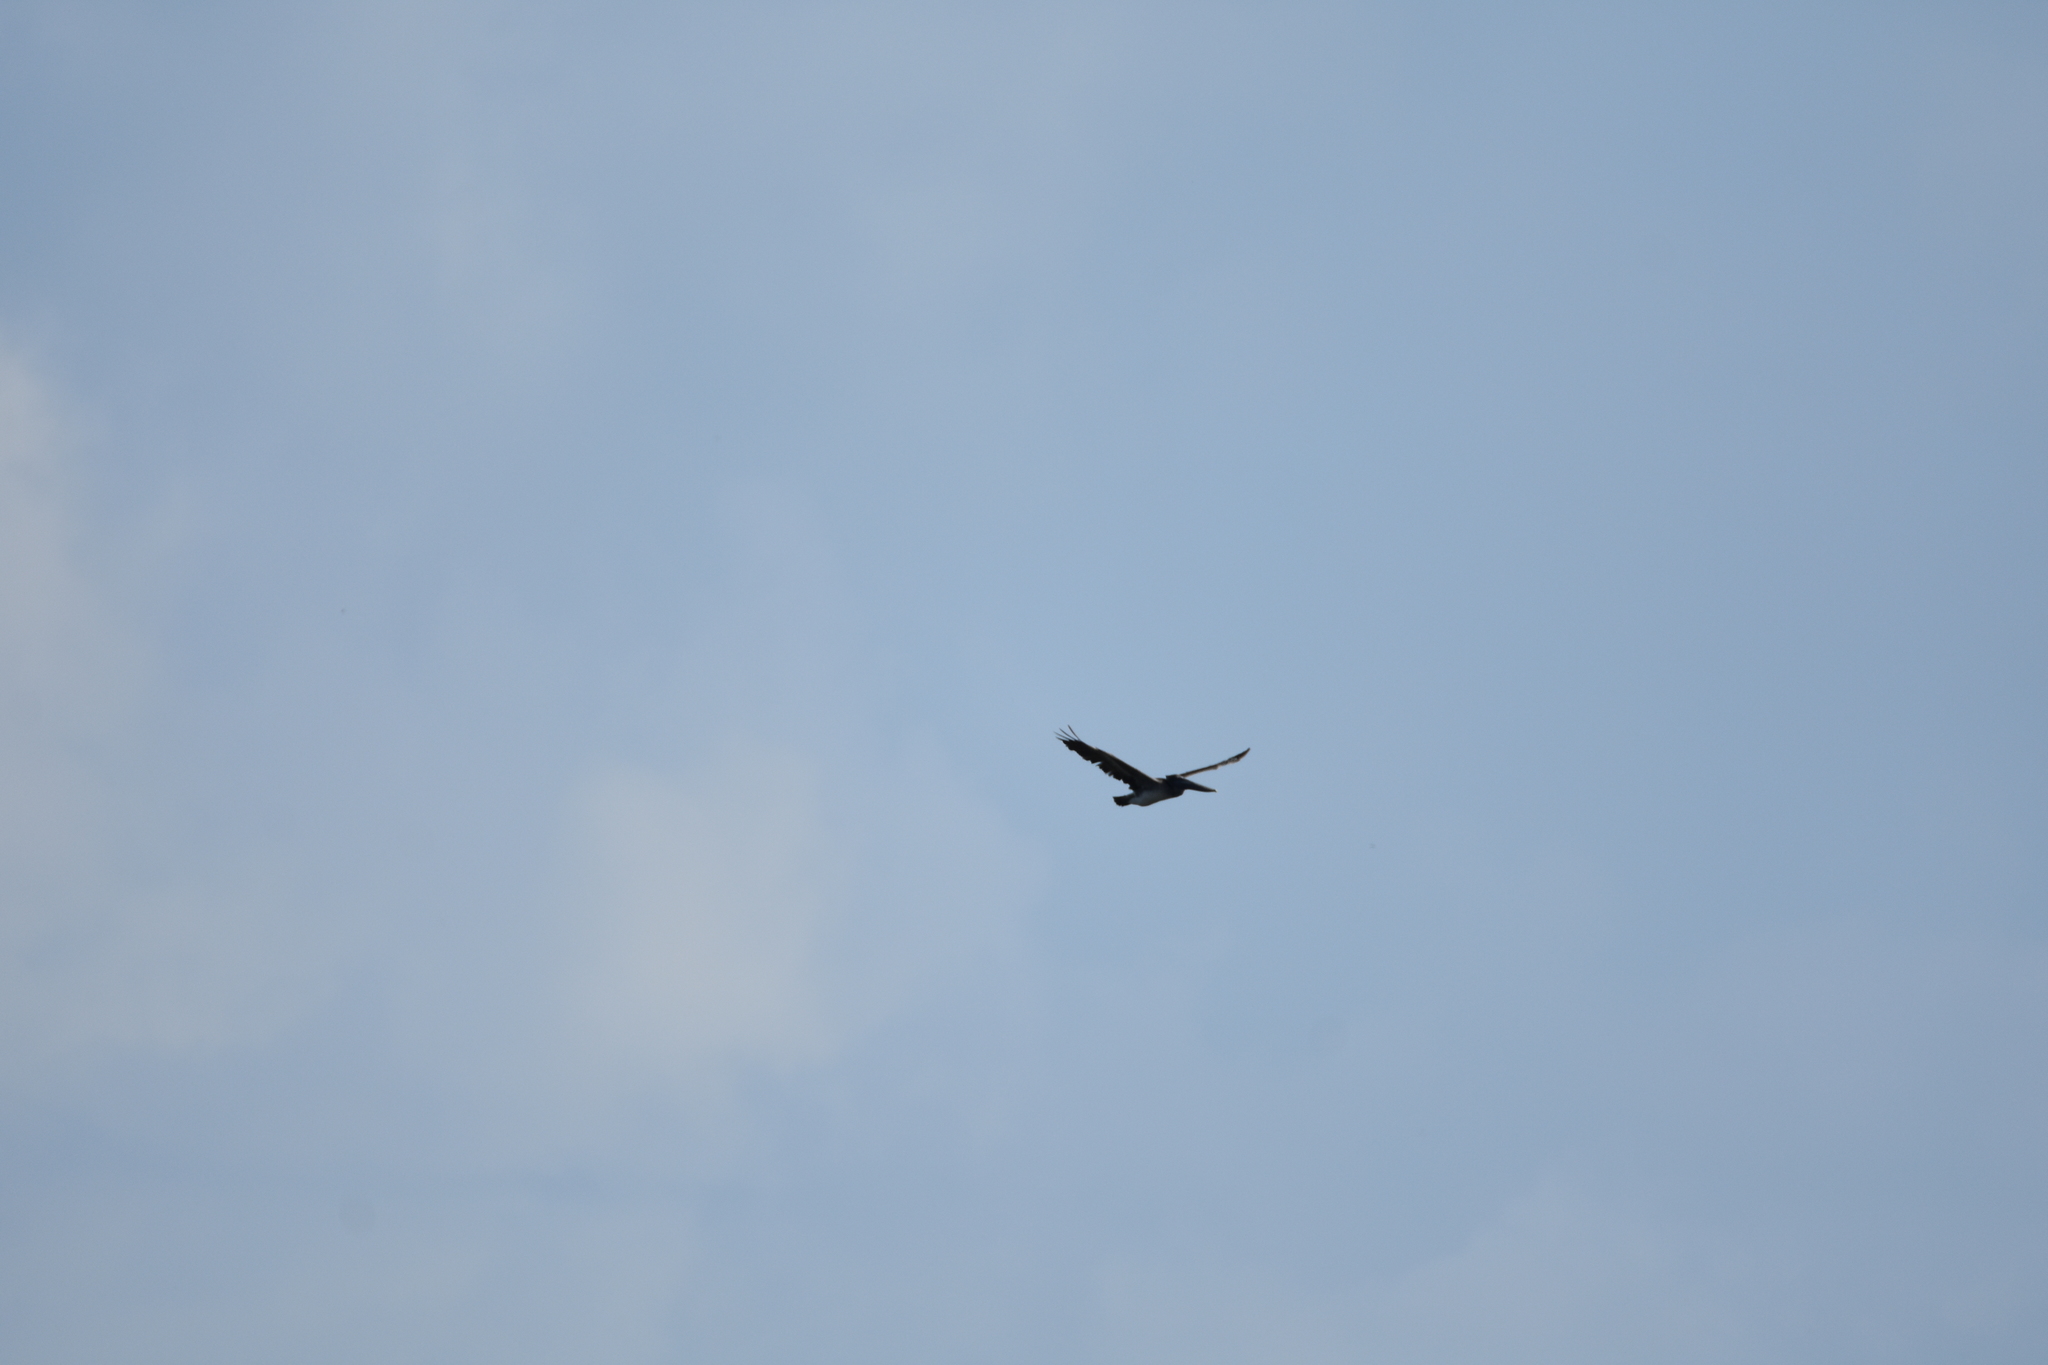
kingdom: Animalia
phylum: Chordata
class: Aves
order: Pelecaniformes
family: Pelecanidae
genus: Pelecanus
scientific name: Pelecanus occidentalis
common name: Brown pelican
